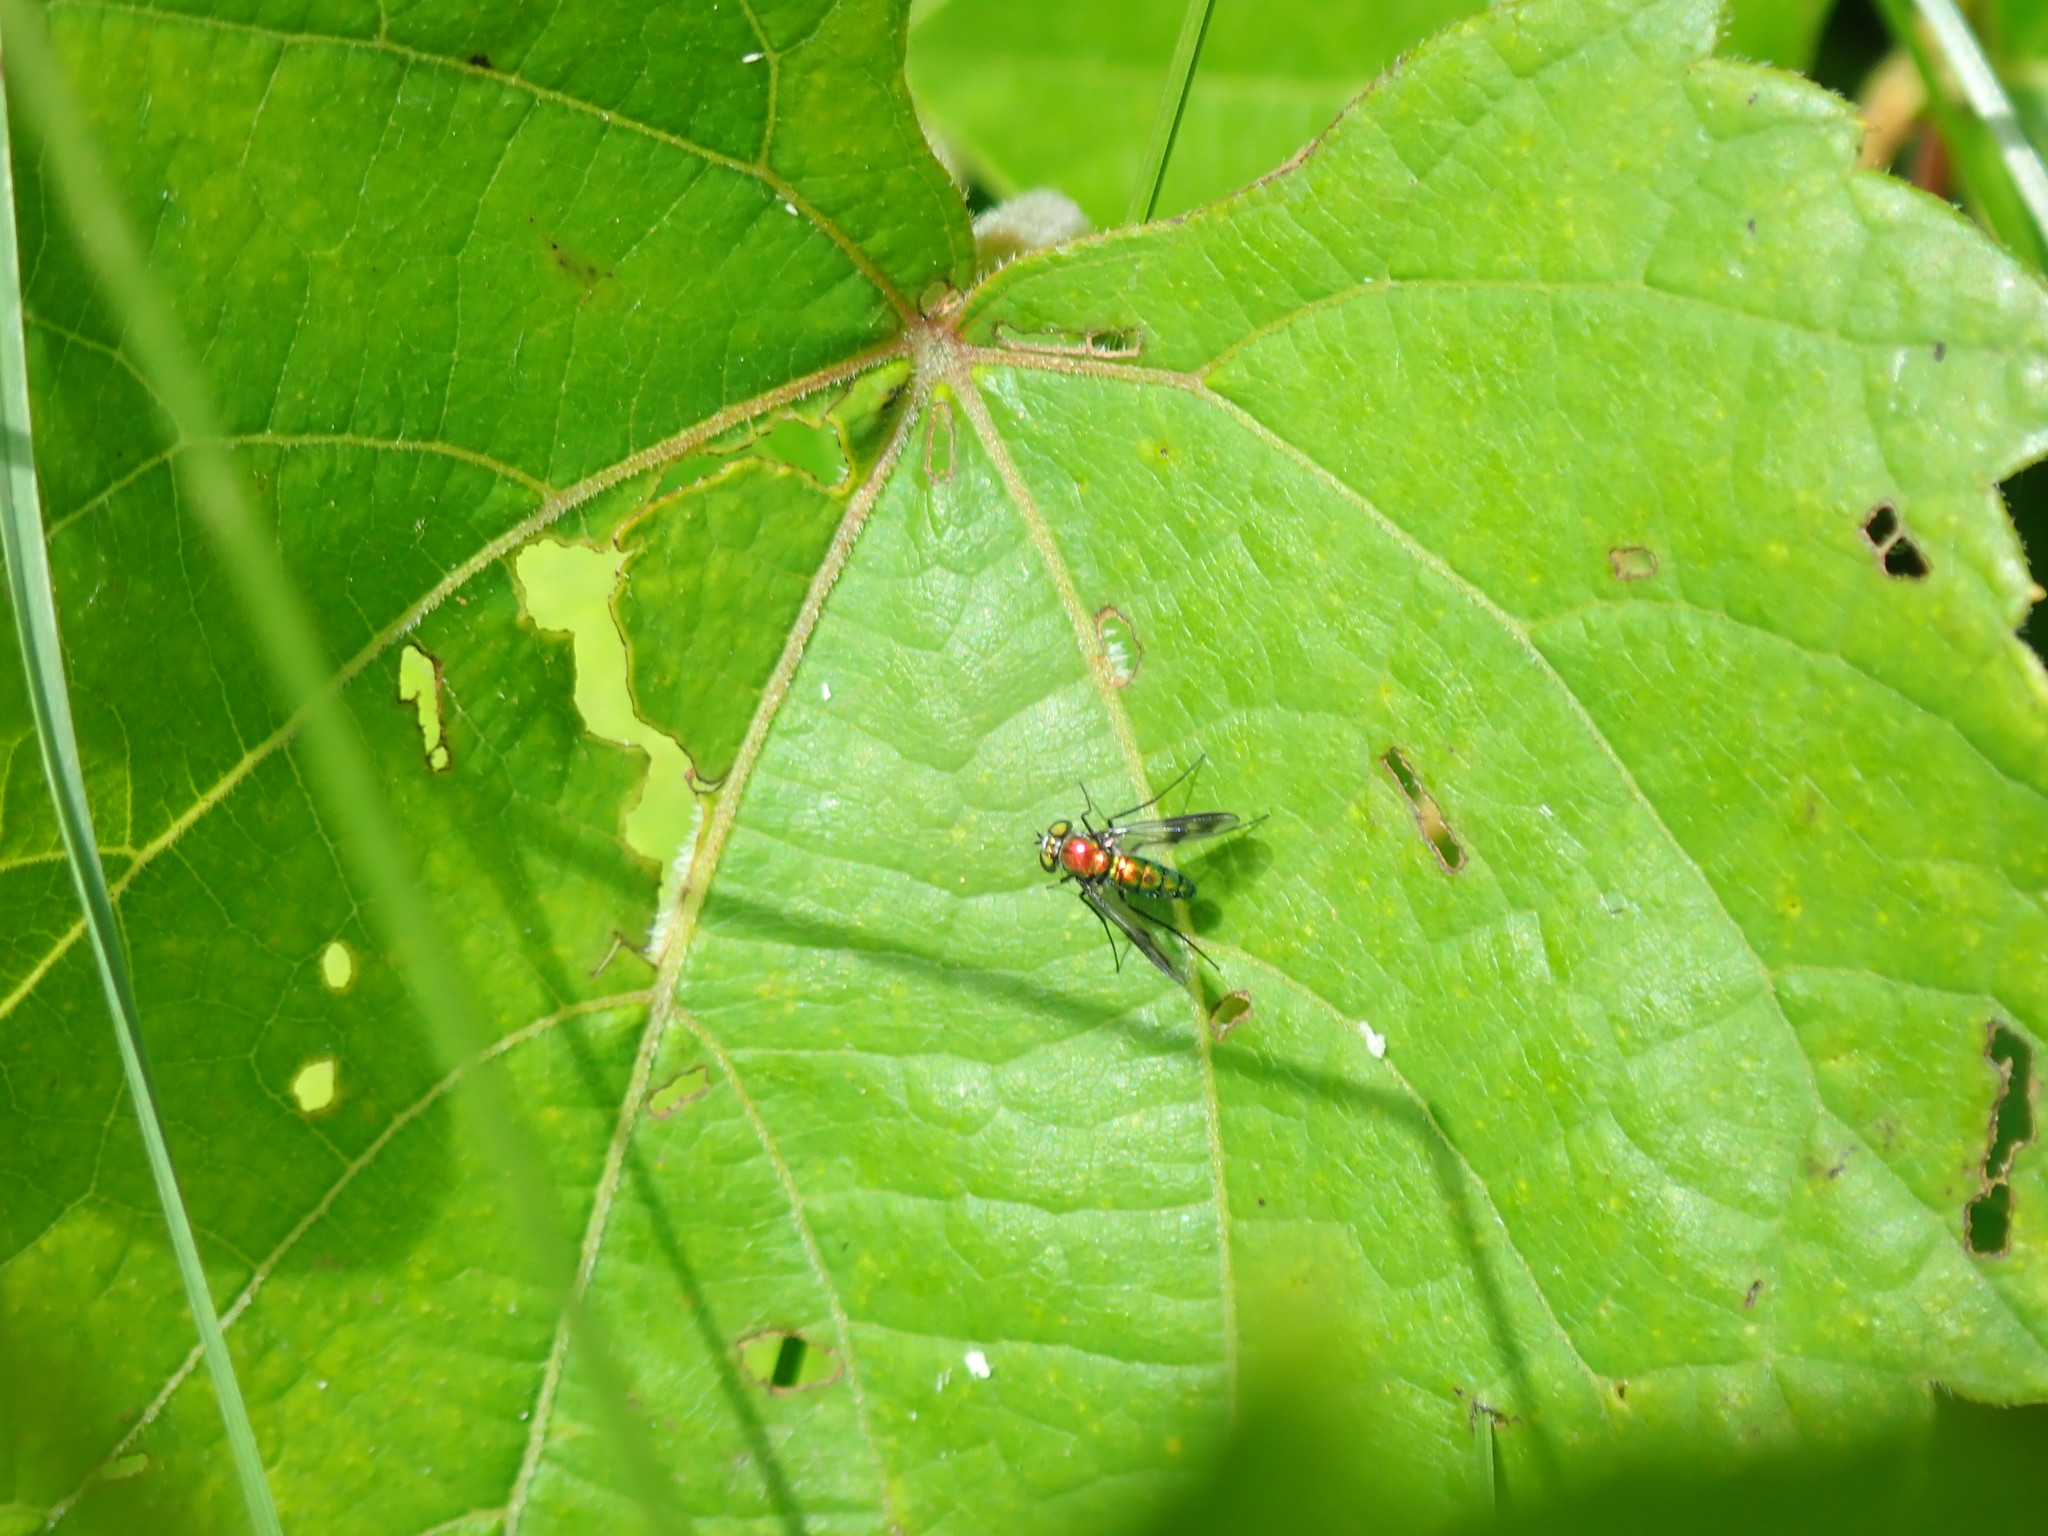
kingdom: Animalia
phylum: Arthropoda
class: Insecta
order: Diptera
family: Dolichopodidae
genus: Condylostylus
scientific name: Condylostylus patibulatus
